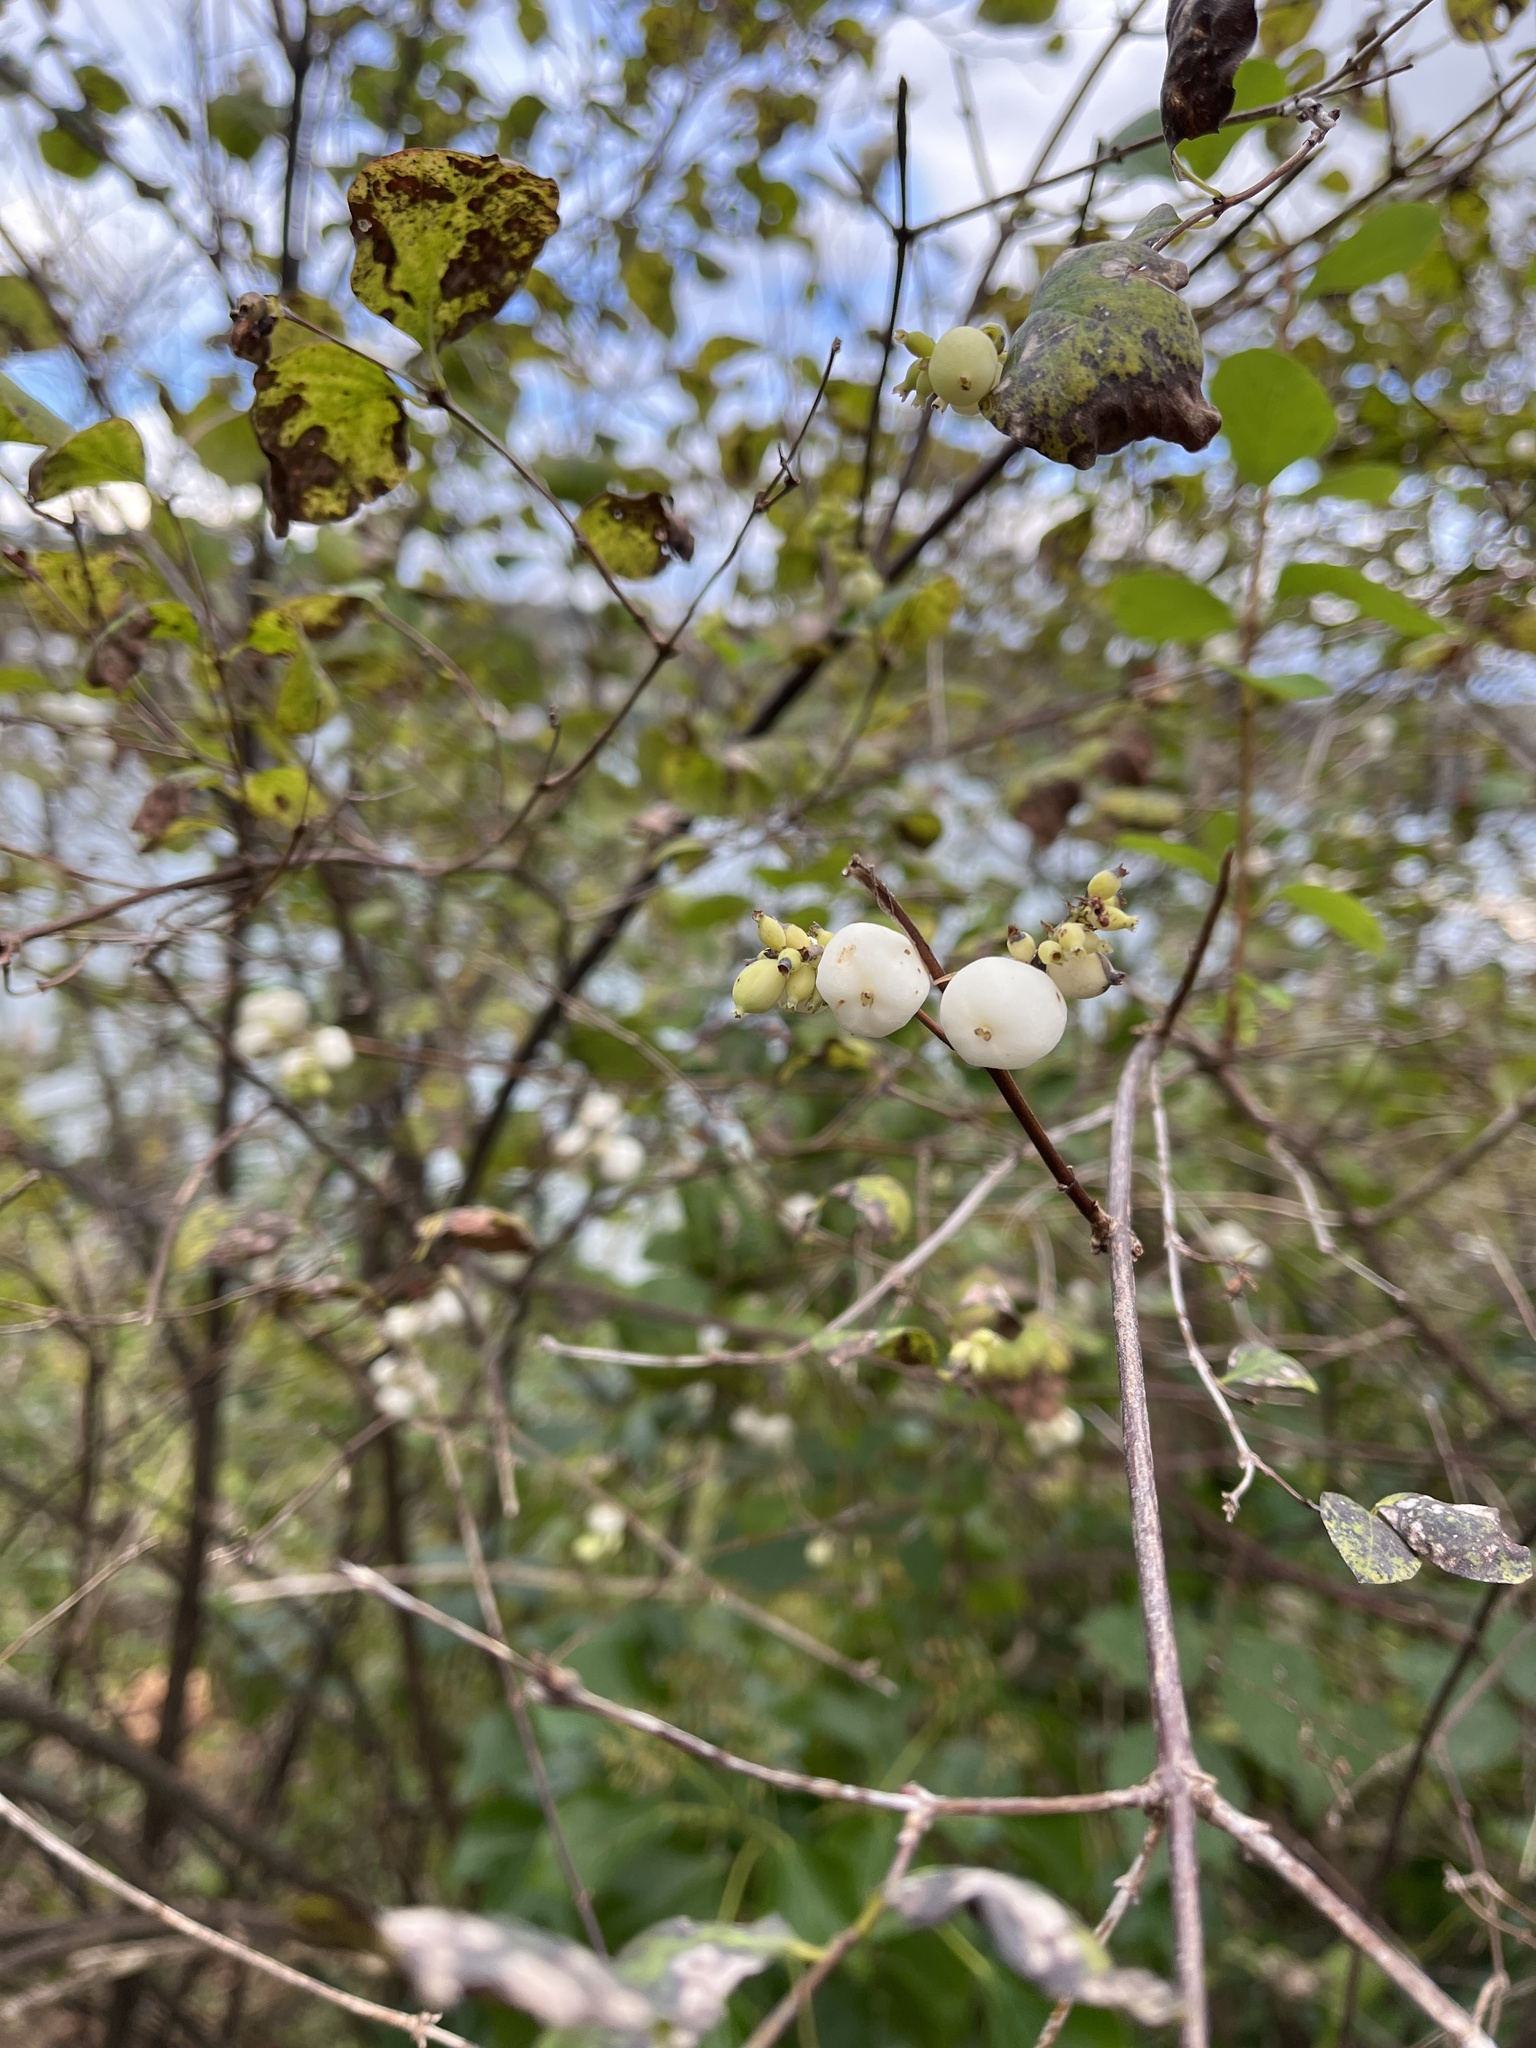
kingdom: Plantae
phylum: Tracheophyta
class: Magnoliopsida
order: Dipsacales
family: Caprifoliaceae
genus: Symphoricarpos
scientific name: Symphoricarpos albus
